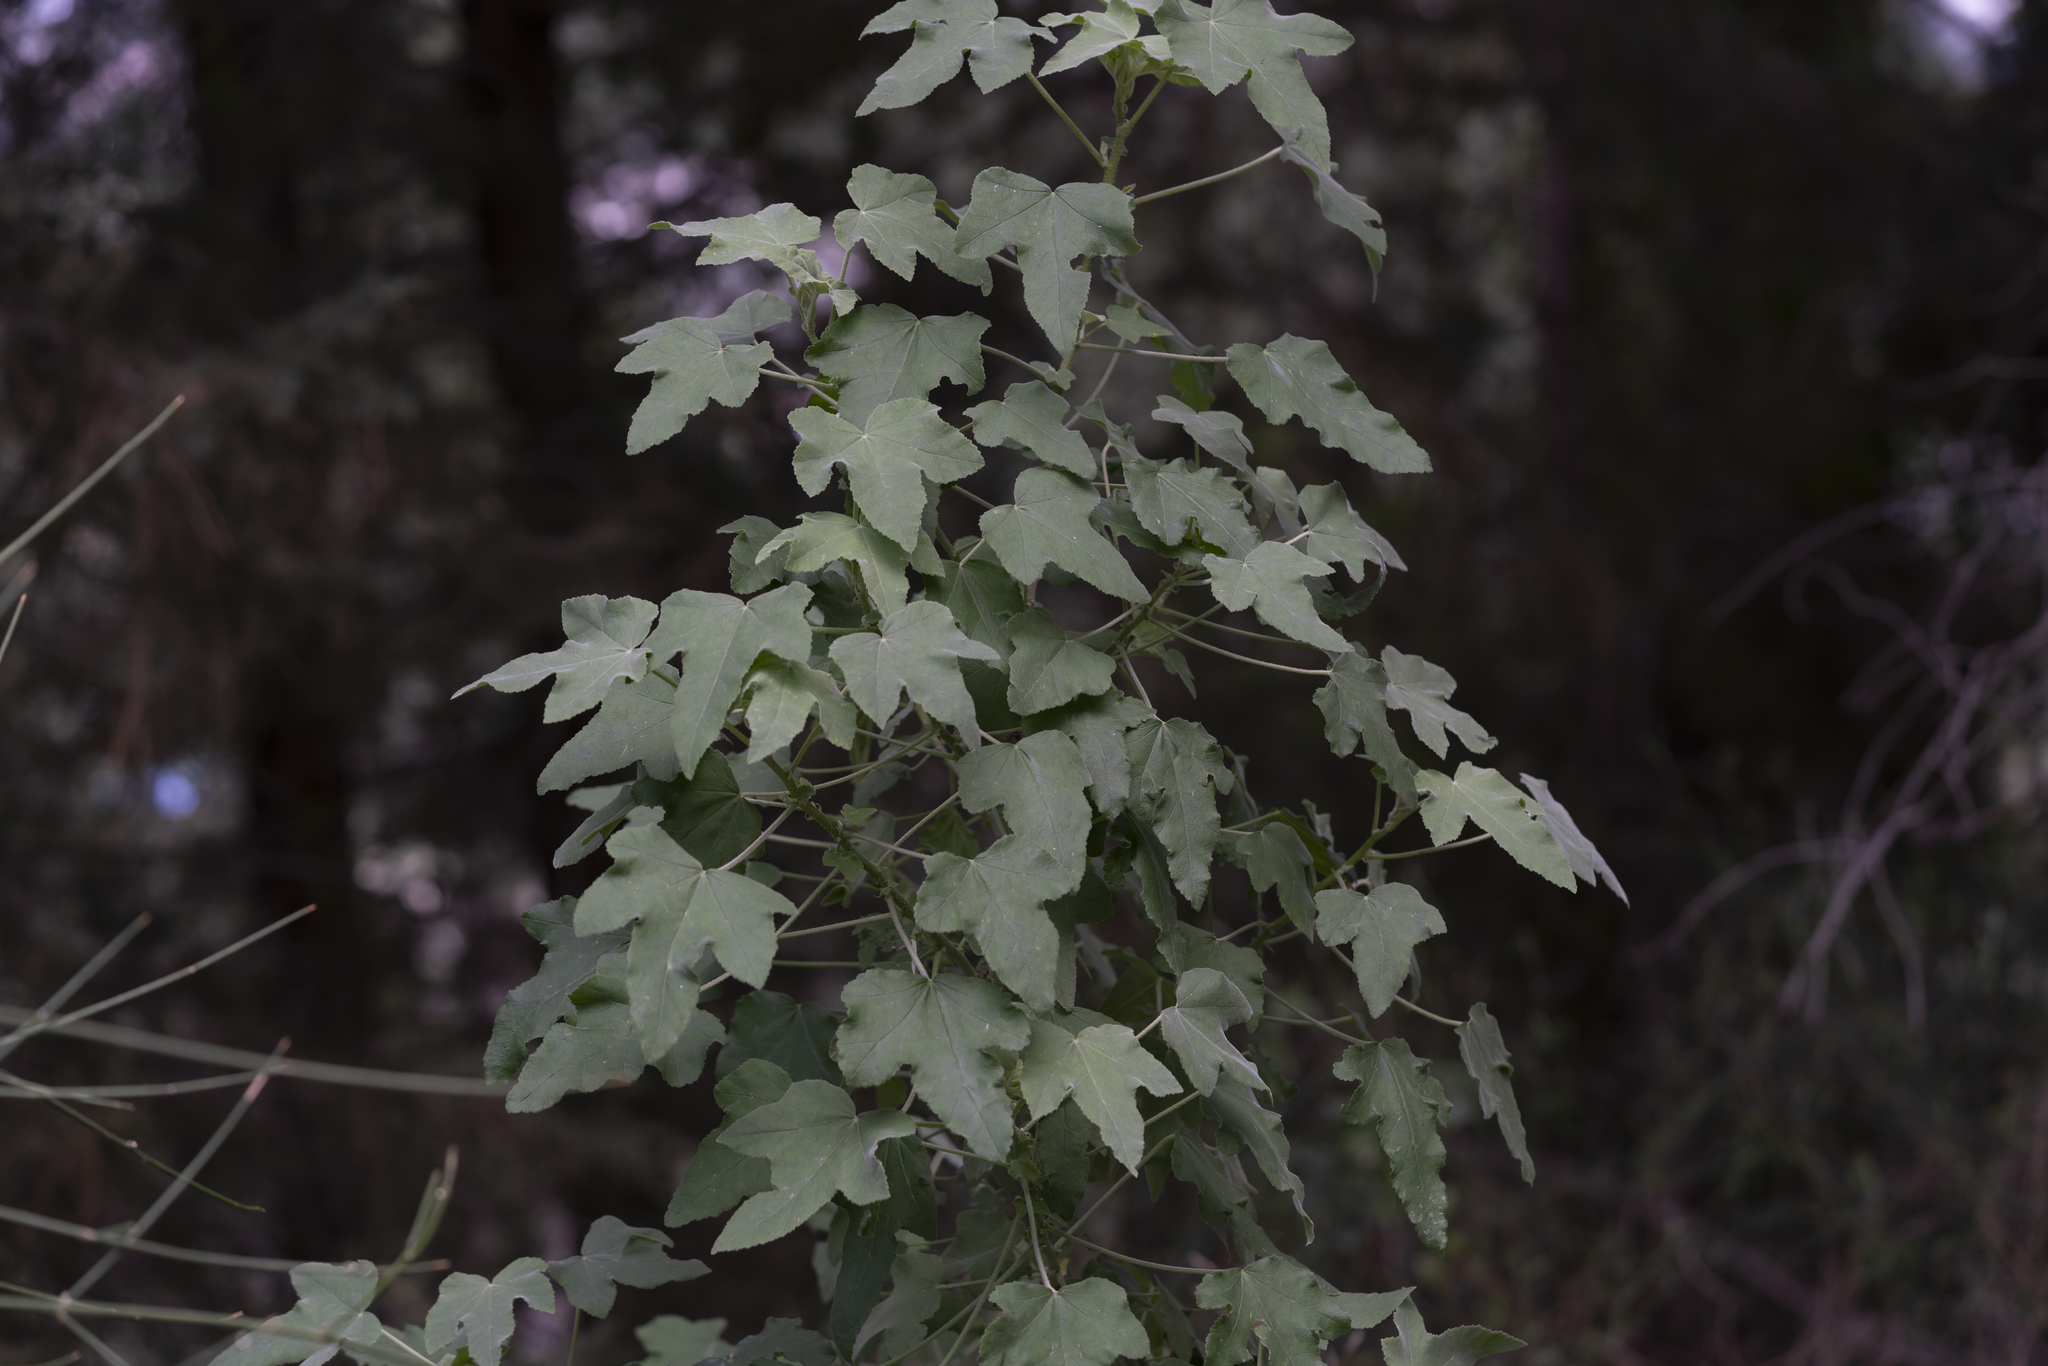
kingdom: Plantae
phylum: Tracheophyta
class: Magnoliopsida
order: Malvales
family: Malvaceae
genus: Malva
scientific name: Malva unguiculata
